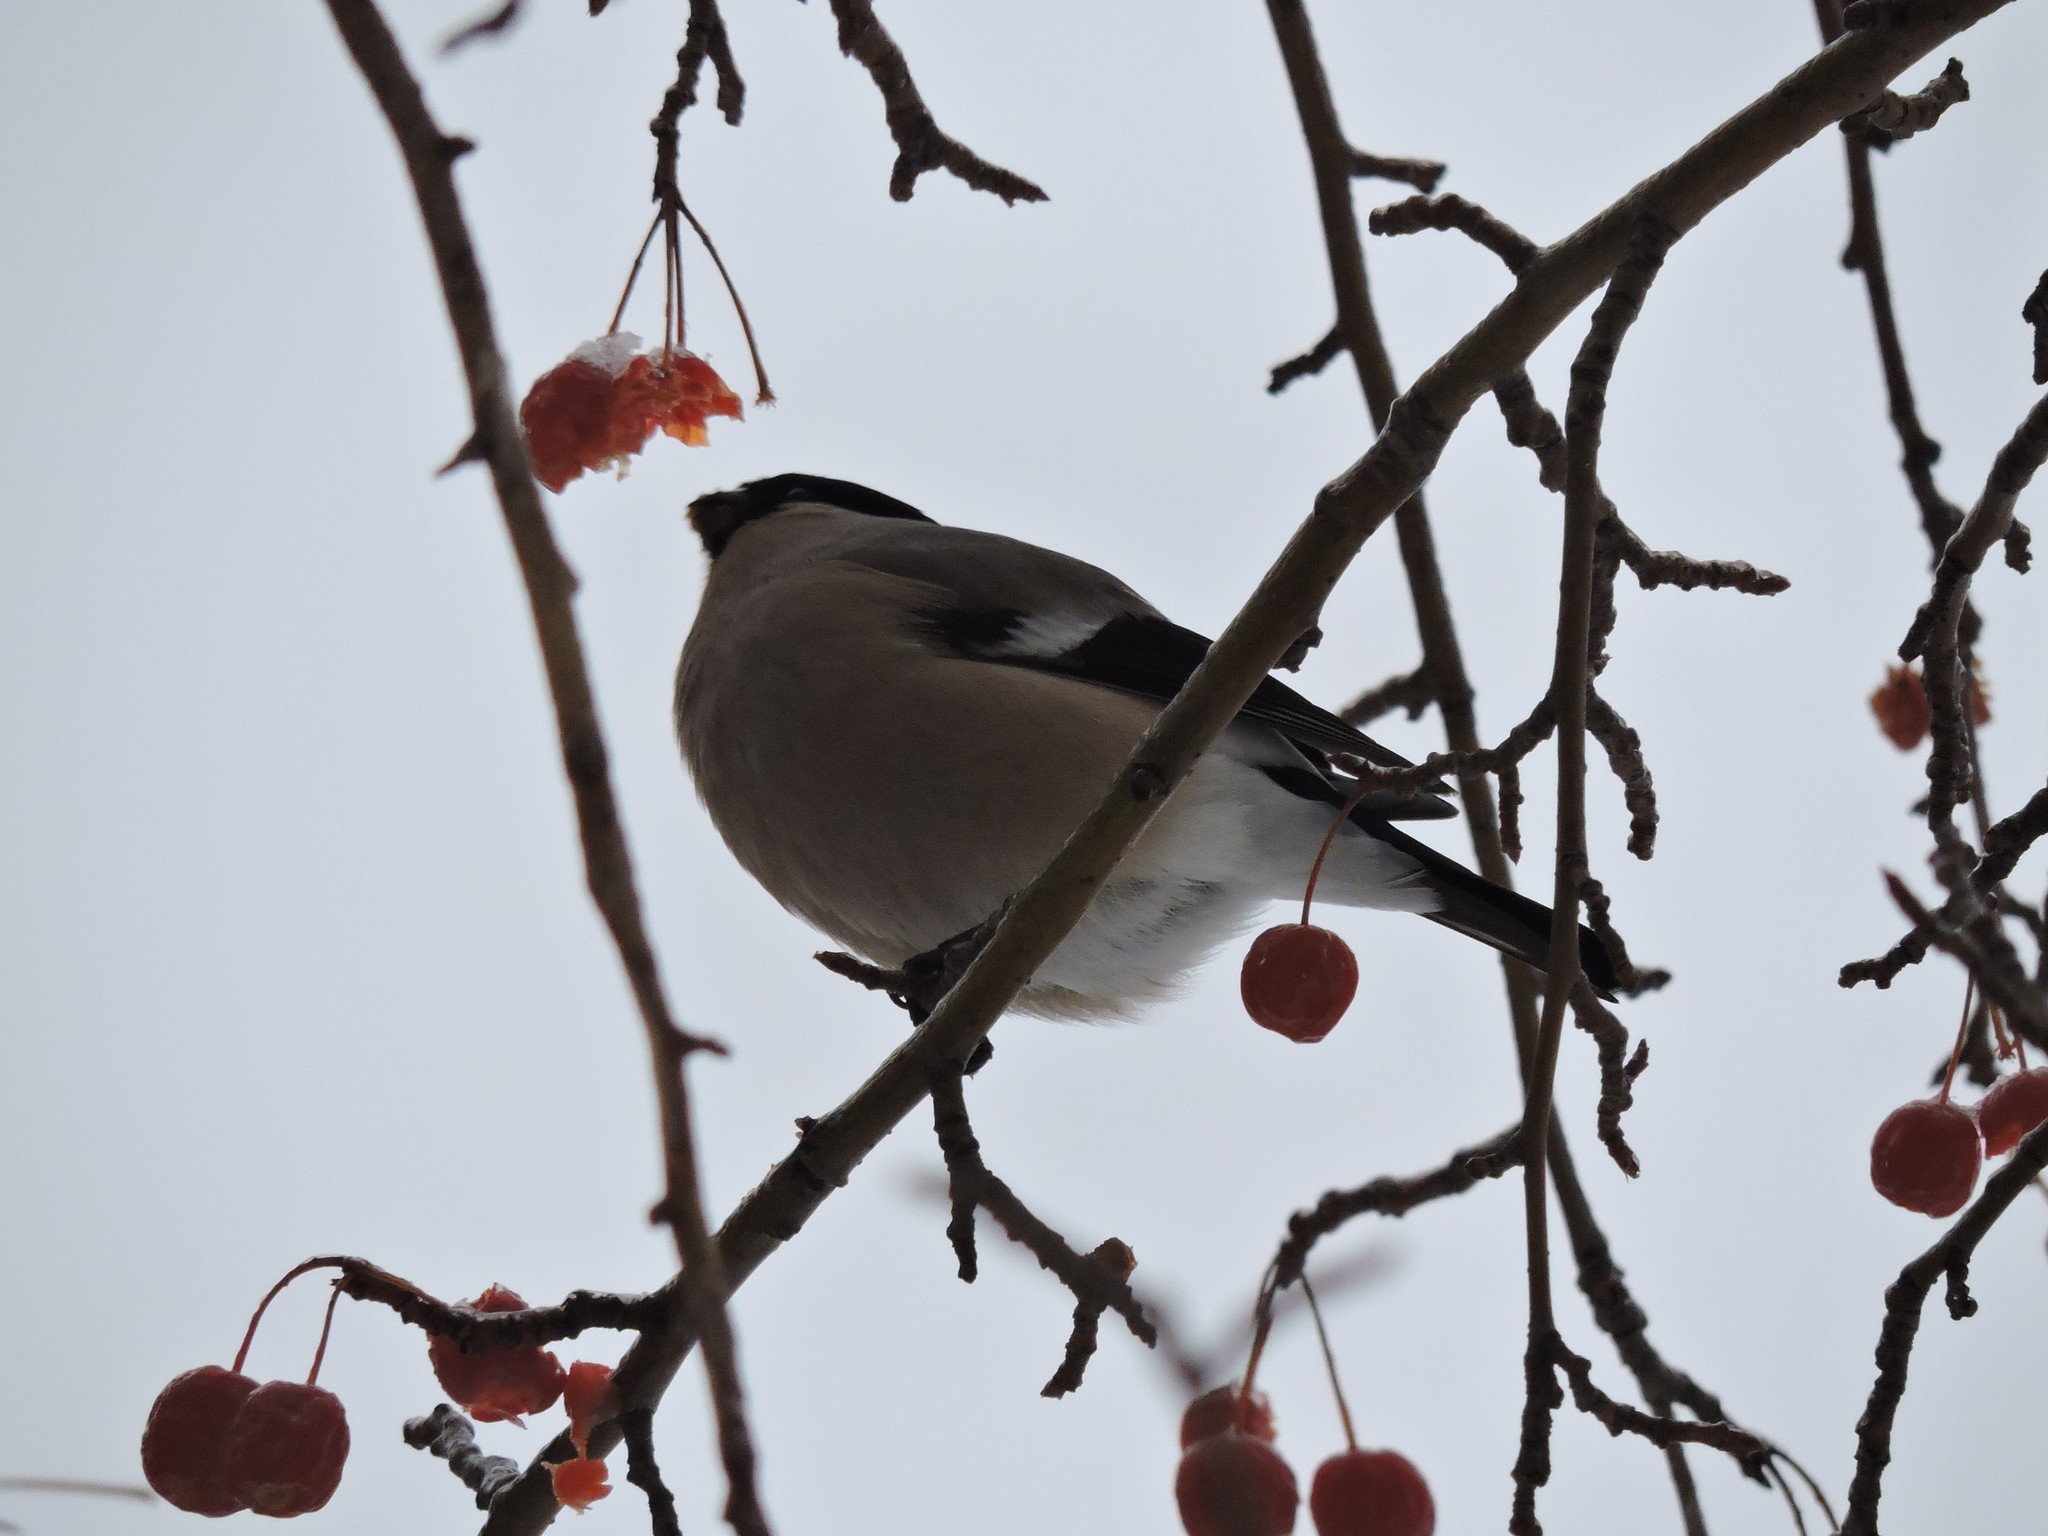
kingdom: Animalia
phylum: Chordata
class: Aves
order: Passeriformes
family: Fringillidae
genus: Pyrrhula
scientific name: Pyrrhula pyrrhula
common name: Eurasian bullfinch
